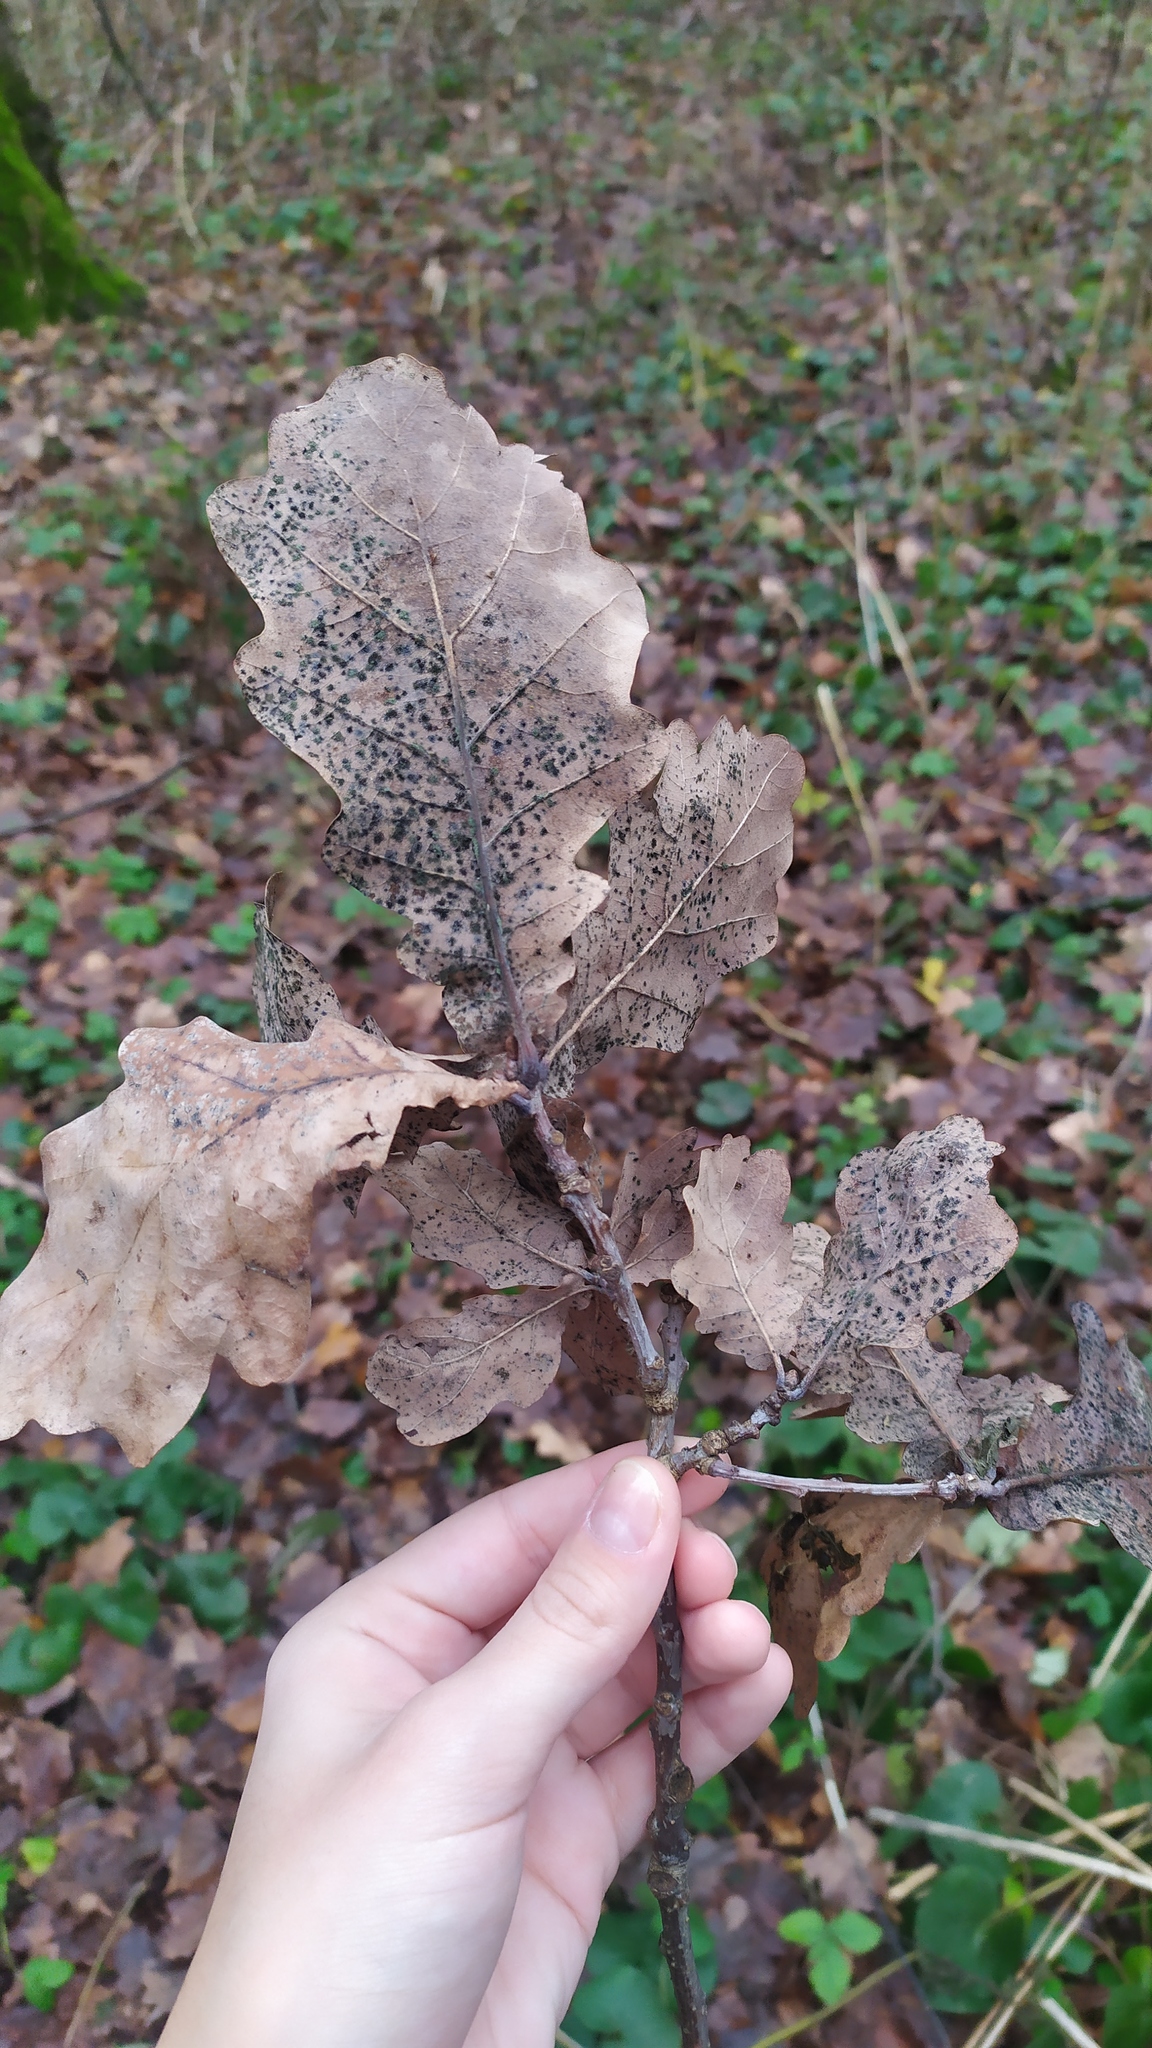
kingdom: Plantae
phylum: Tracheophyta
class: Magnoliopsida
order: Fagales
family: Fagaceae
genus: Quercus
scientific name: Quercus robur
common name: Pedunculate oak
